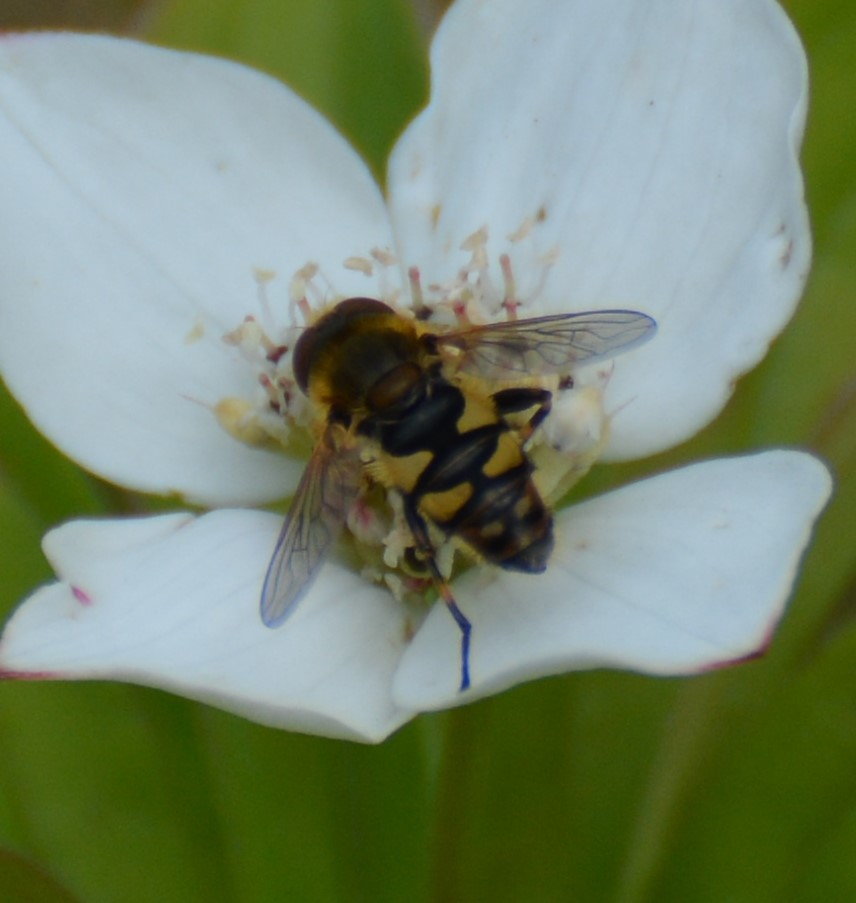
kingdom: Animalia
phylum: Arthropoda
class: Insecta
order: Diptera
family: Syrphidae
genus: Parhelophilus
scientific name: Parhelophilus obsoletus
